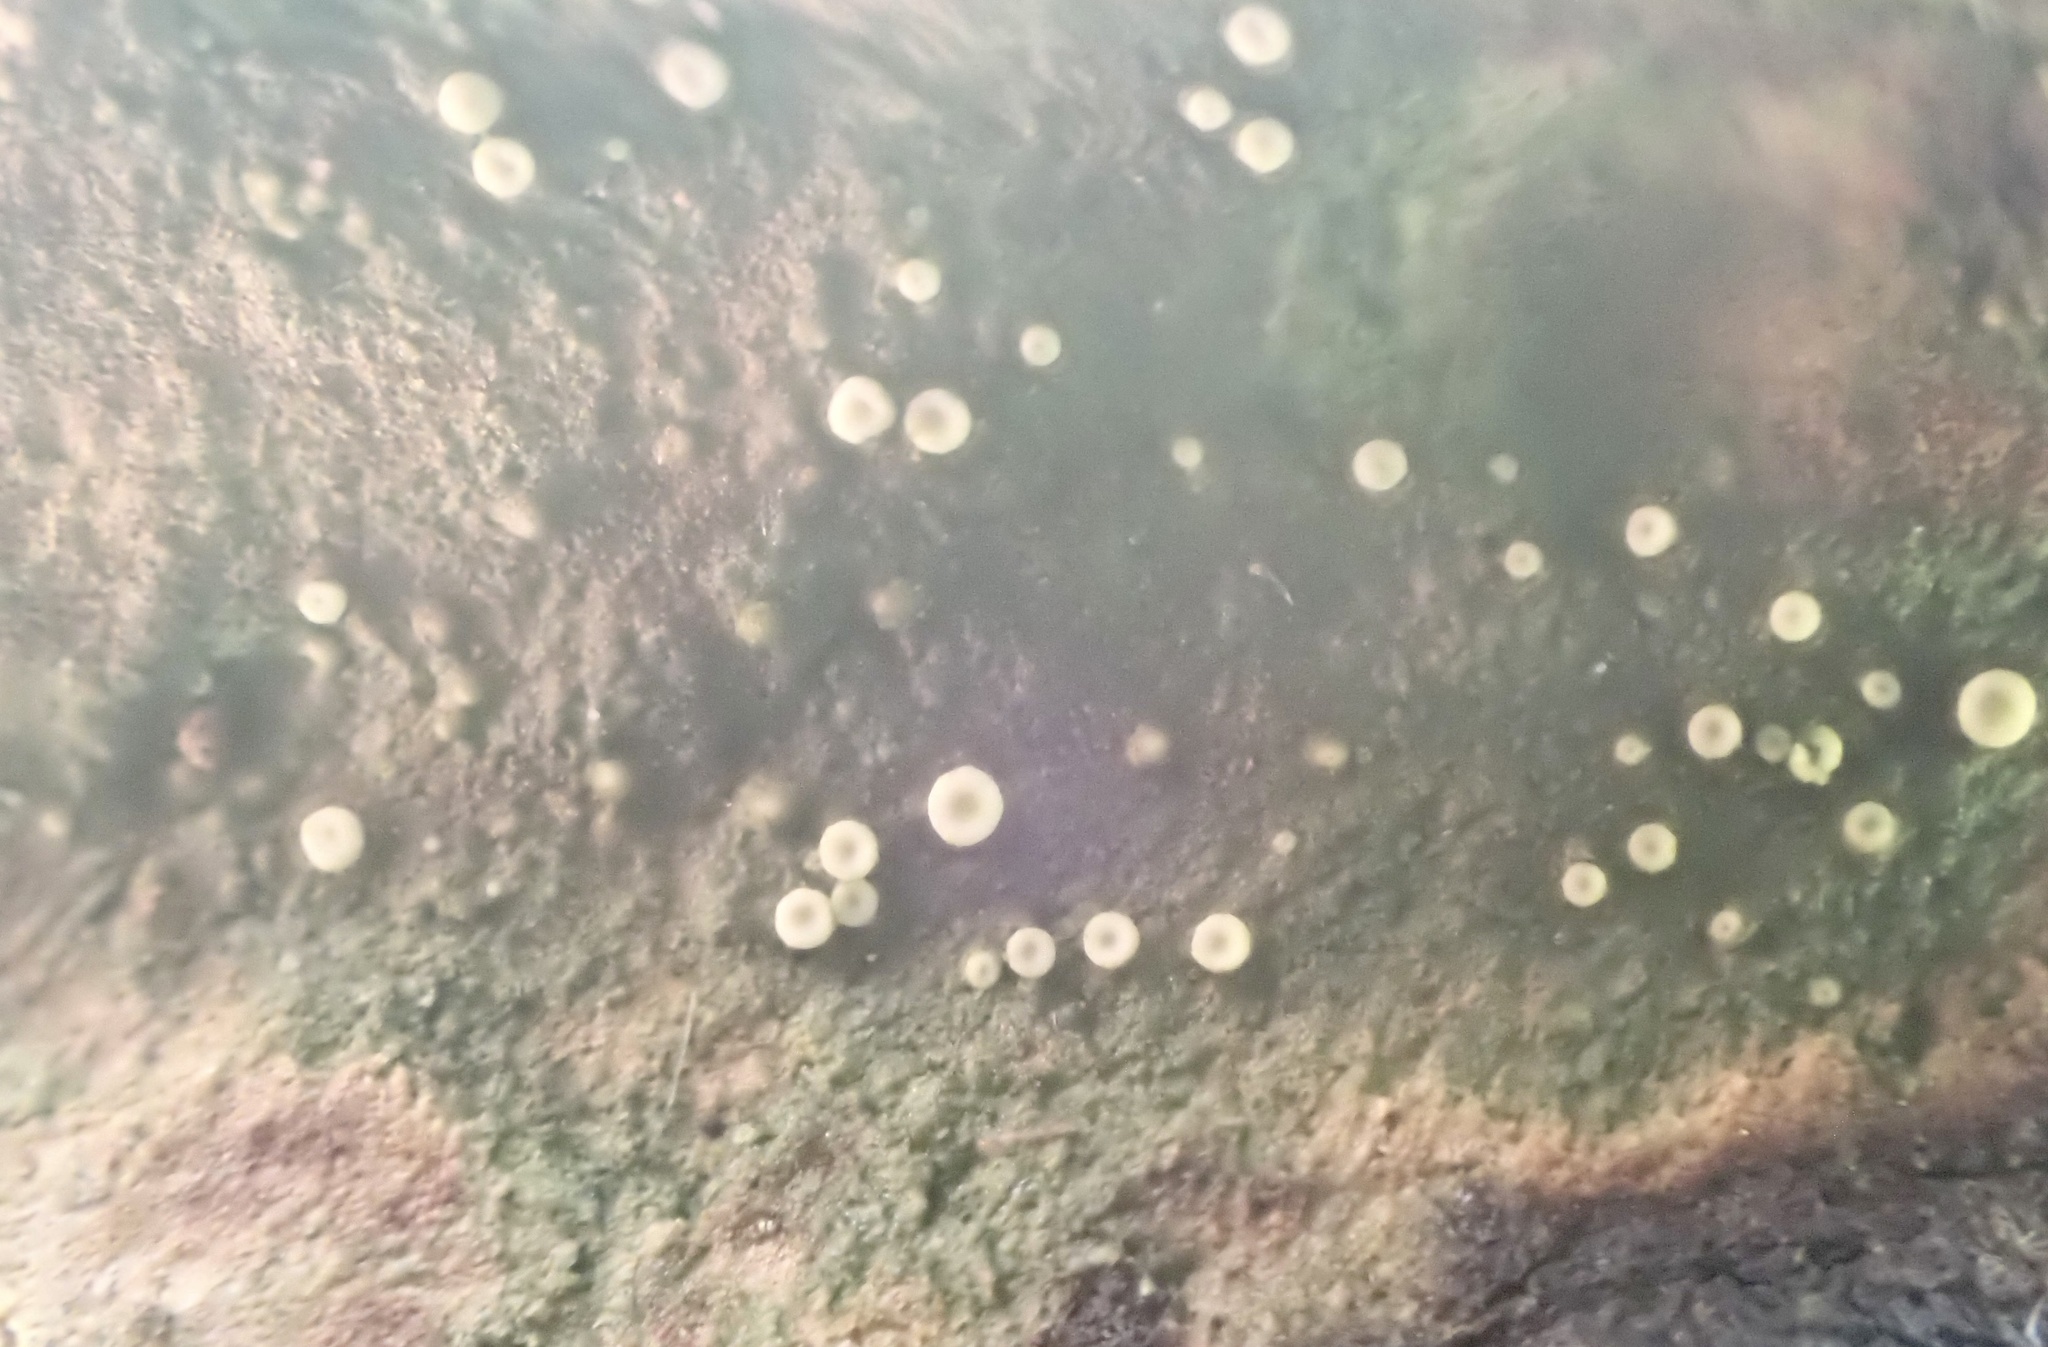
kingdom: Fungi
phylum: Ascomycota
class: Lecanoromycetes
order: Ostropales
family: Coenogoniaceae
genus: Coenogonium
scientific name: Coenogonium pineti
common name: Pink dimple lichen
